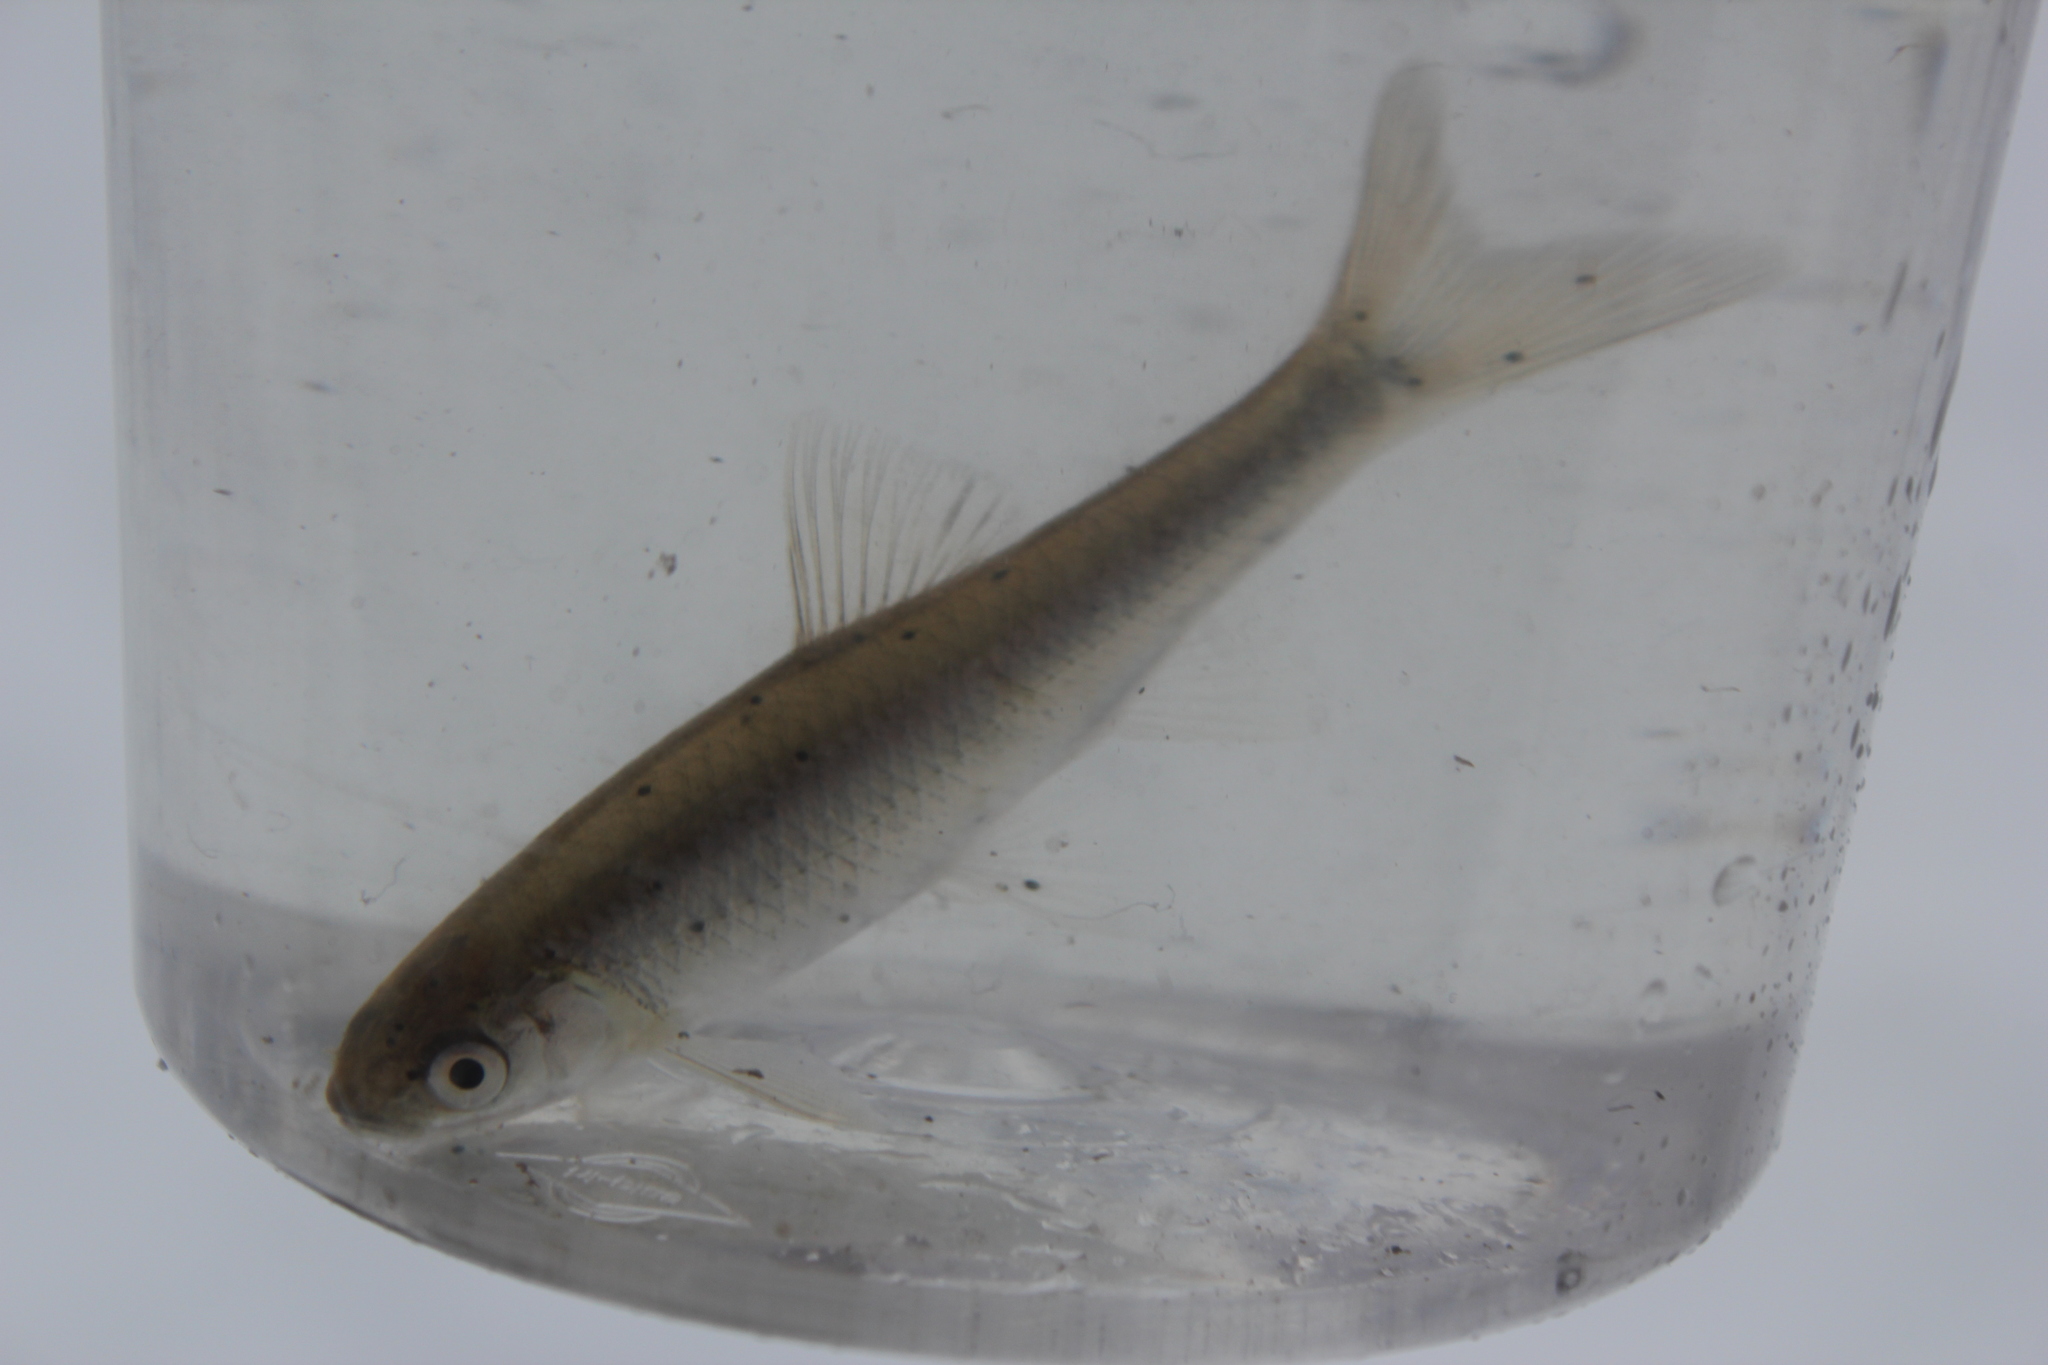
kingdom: Animalia
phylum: Chordata
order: Cypriniformes
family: Cyprinidae
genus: Cyprinella
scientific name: Cyprinella spiloptera
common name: Spotfin shiner
